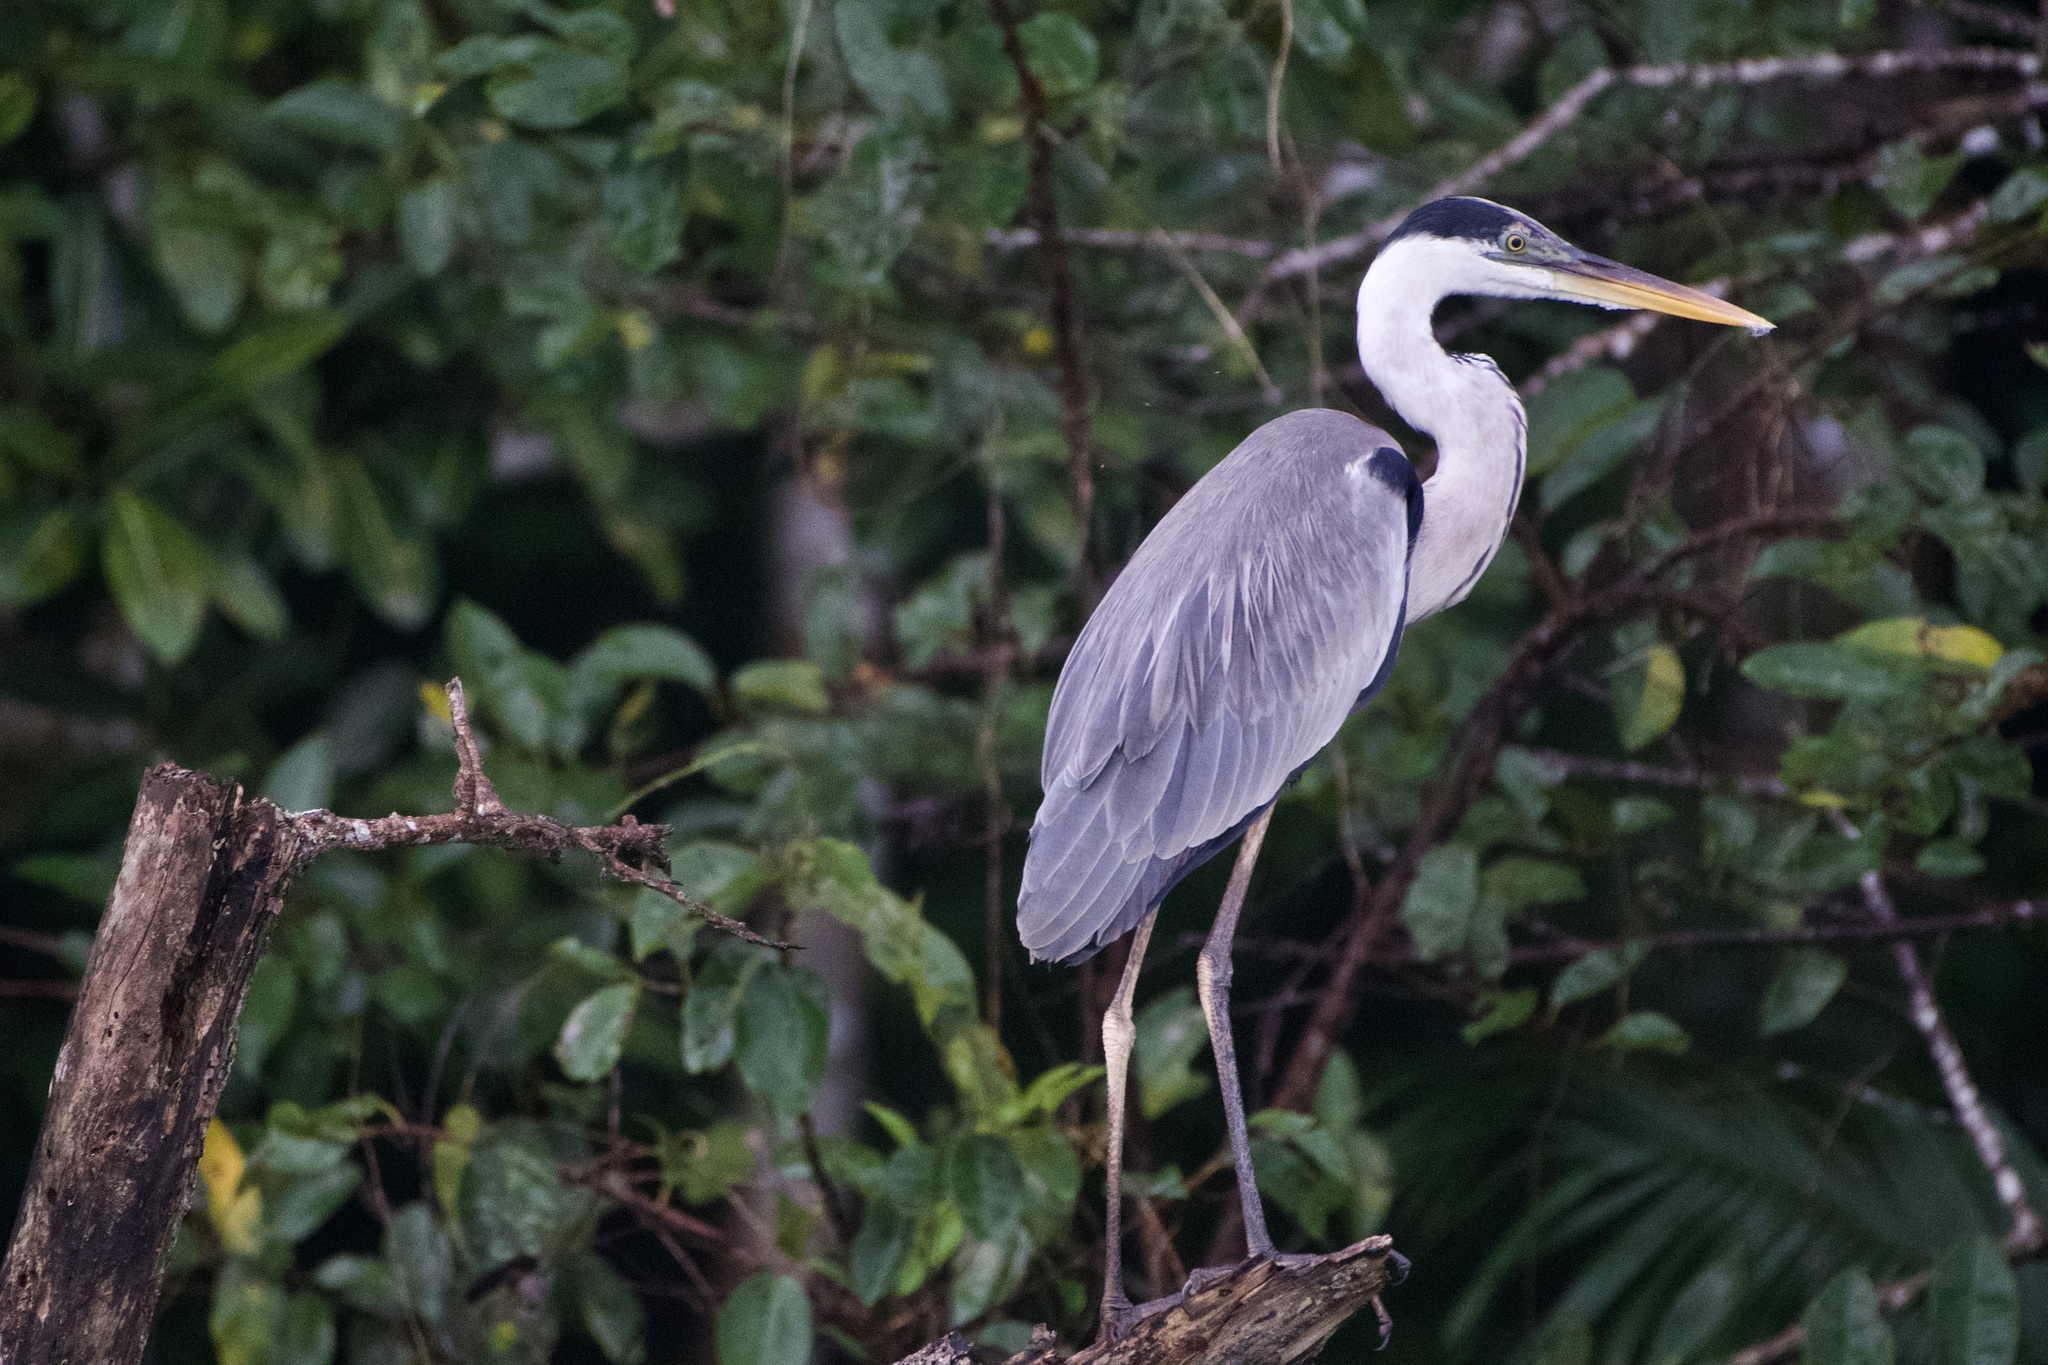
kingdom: Animalia
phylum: Chordata
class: Aves
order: Pelecaniformes
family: Ardeidae
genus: Ardea
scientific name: Ardea cocoi
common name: Cocoi heron
